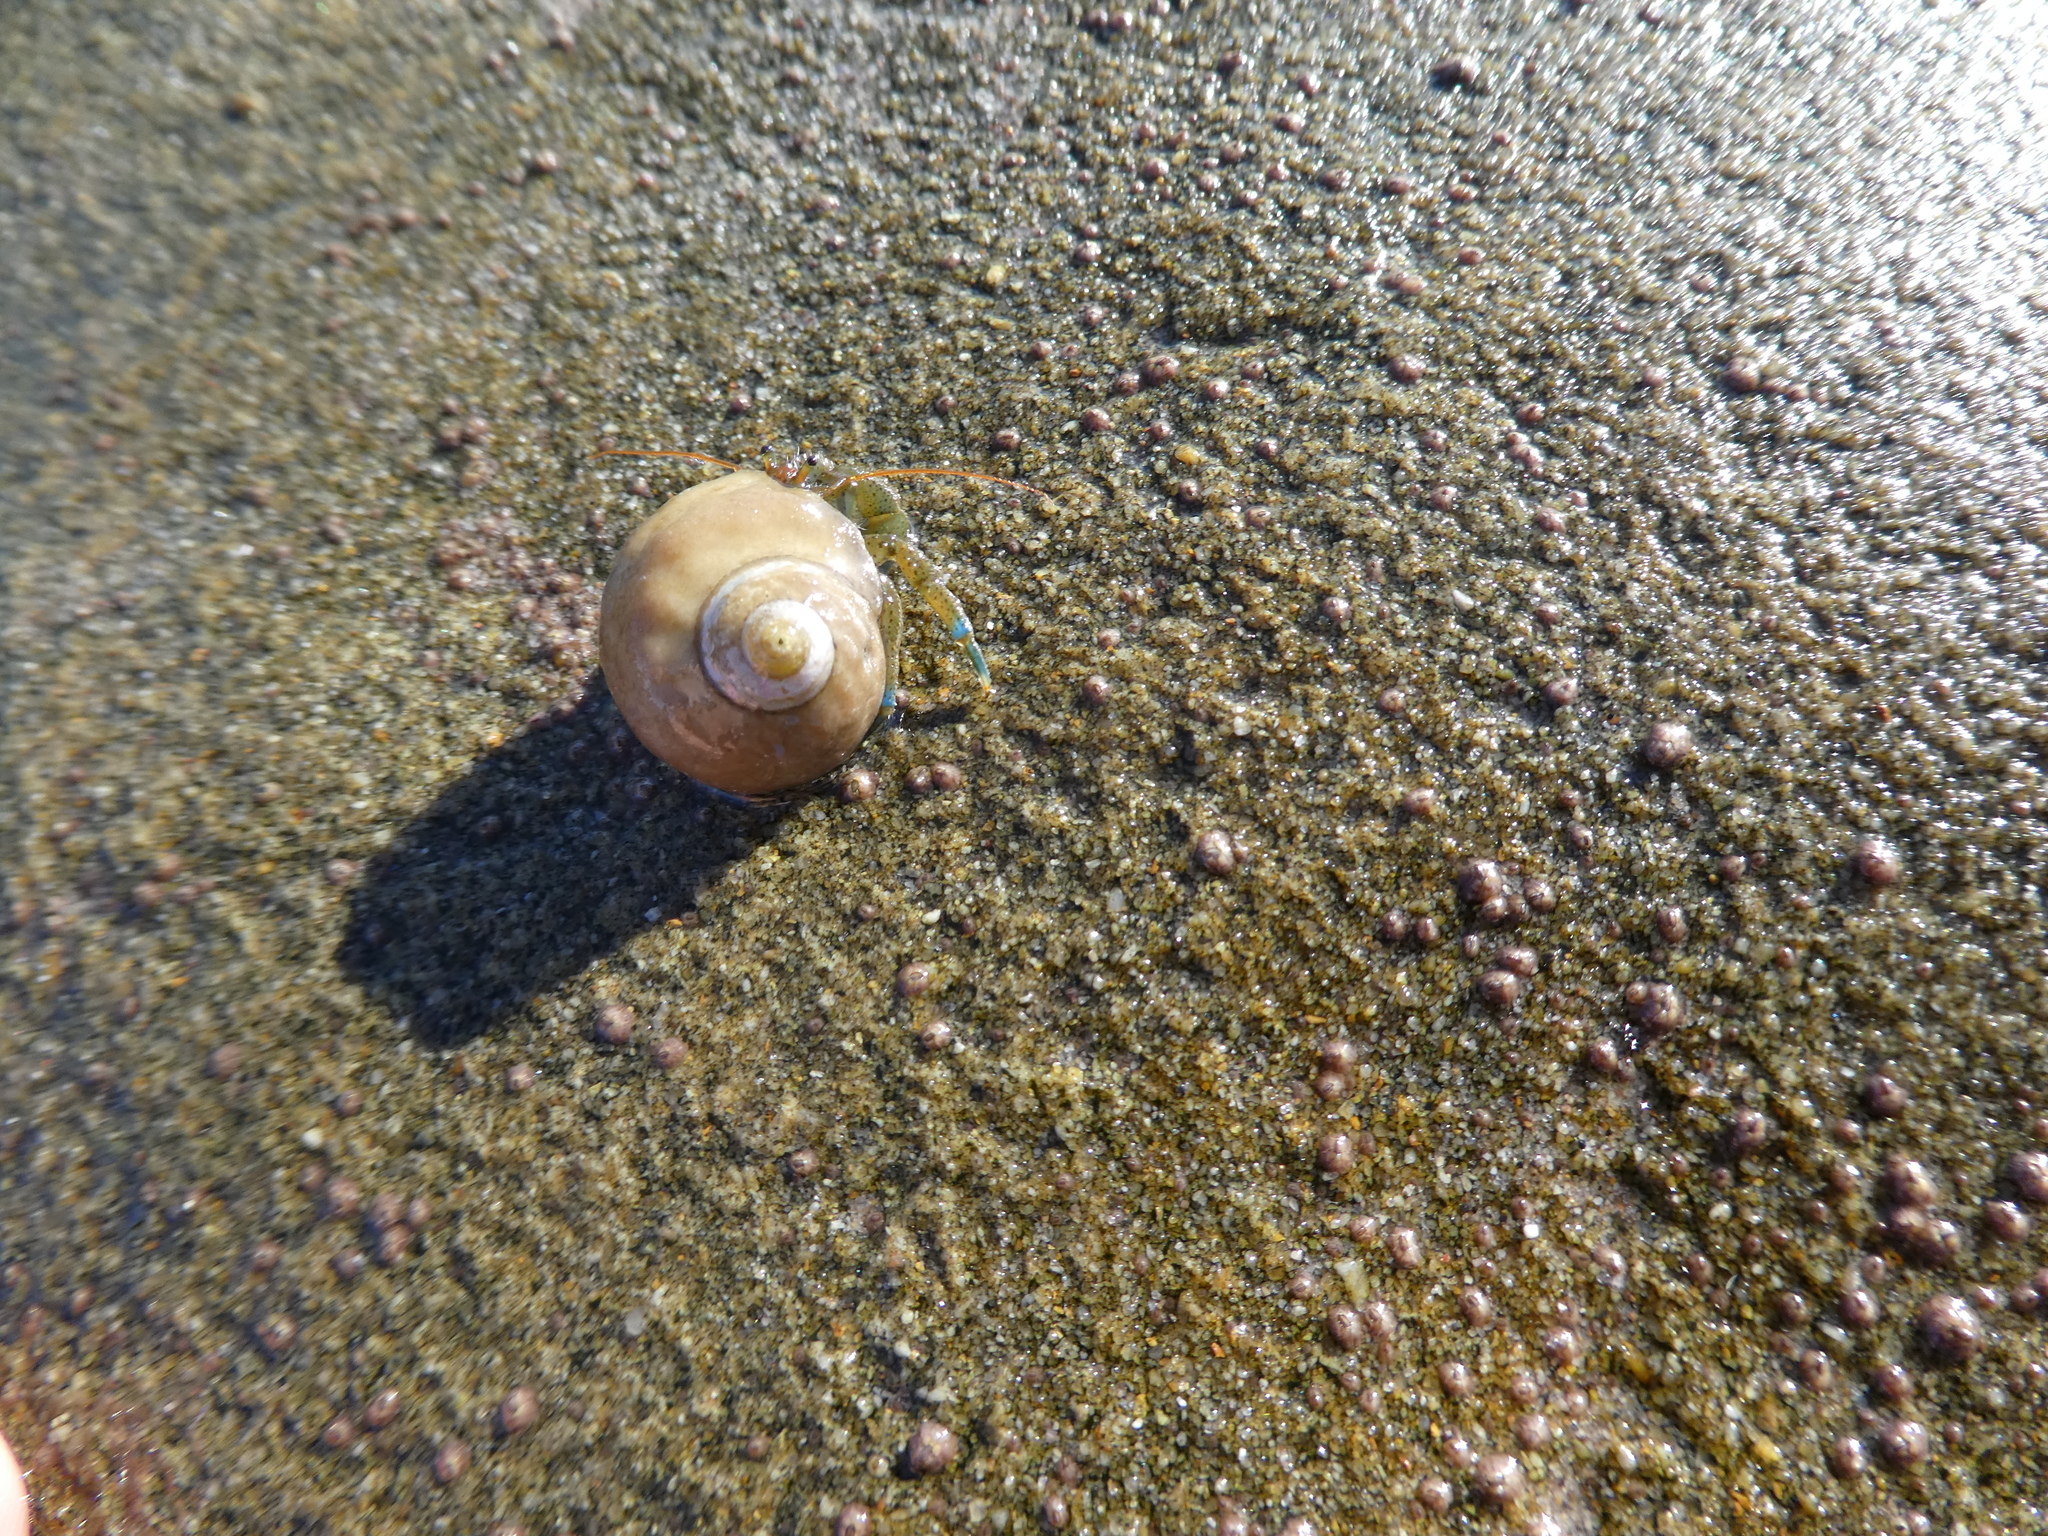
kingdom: Animalia
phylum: Mollusca
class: Gastropoda
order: Trochida
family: Tegulidae
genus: Tegula
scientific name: Tegula aureotincta
